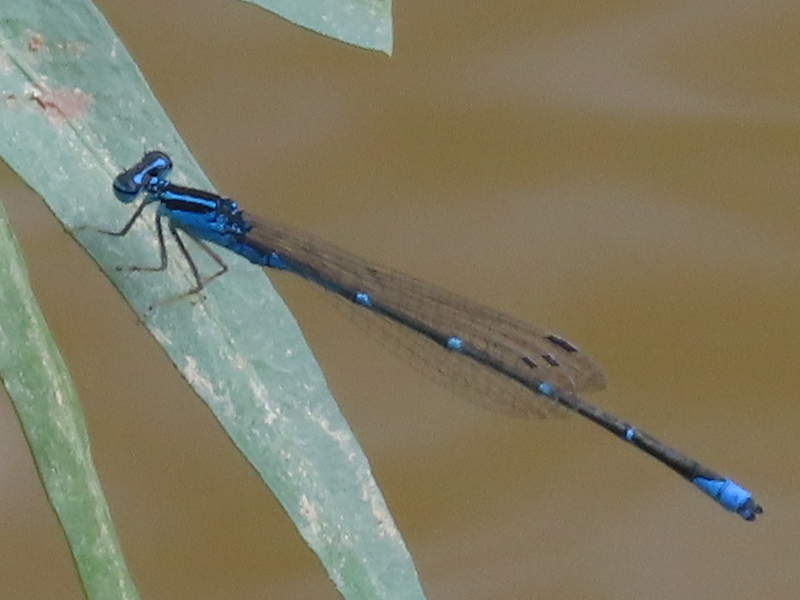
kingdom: Animalia
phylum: Arthropoda
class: Insecta
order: Odonata
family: Coenagrionidae
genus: Enallagma
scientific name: Enallagma exsulans
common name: Stream bluet
